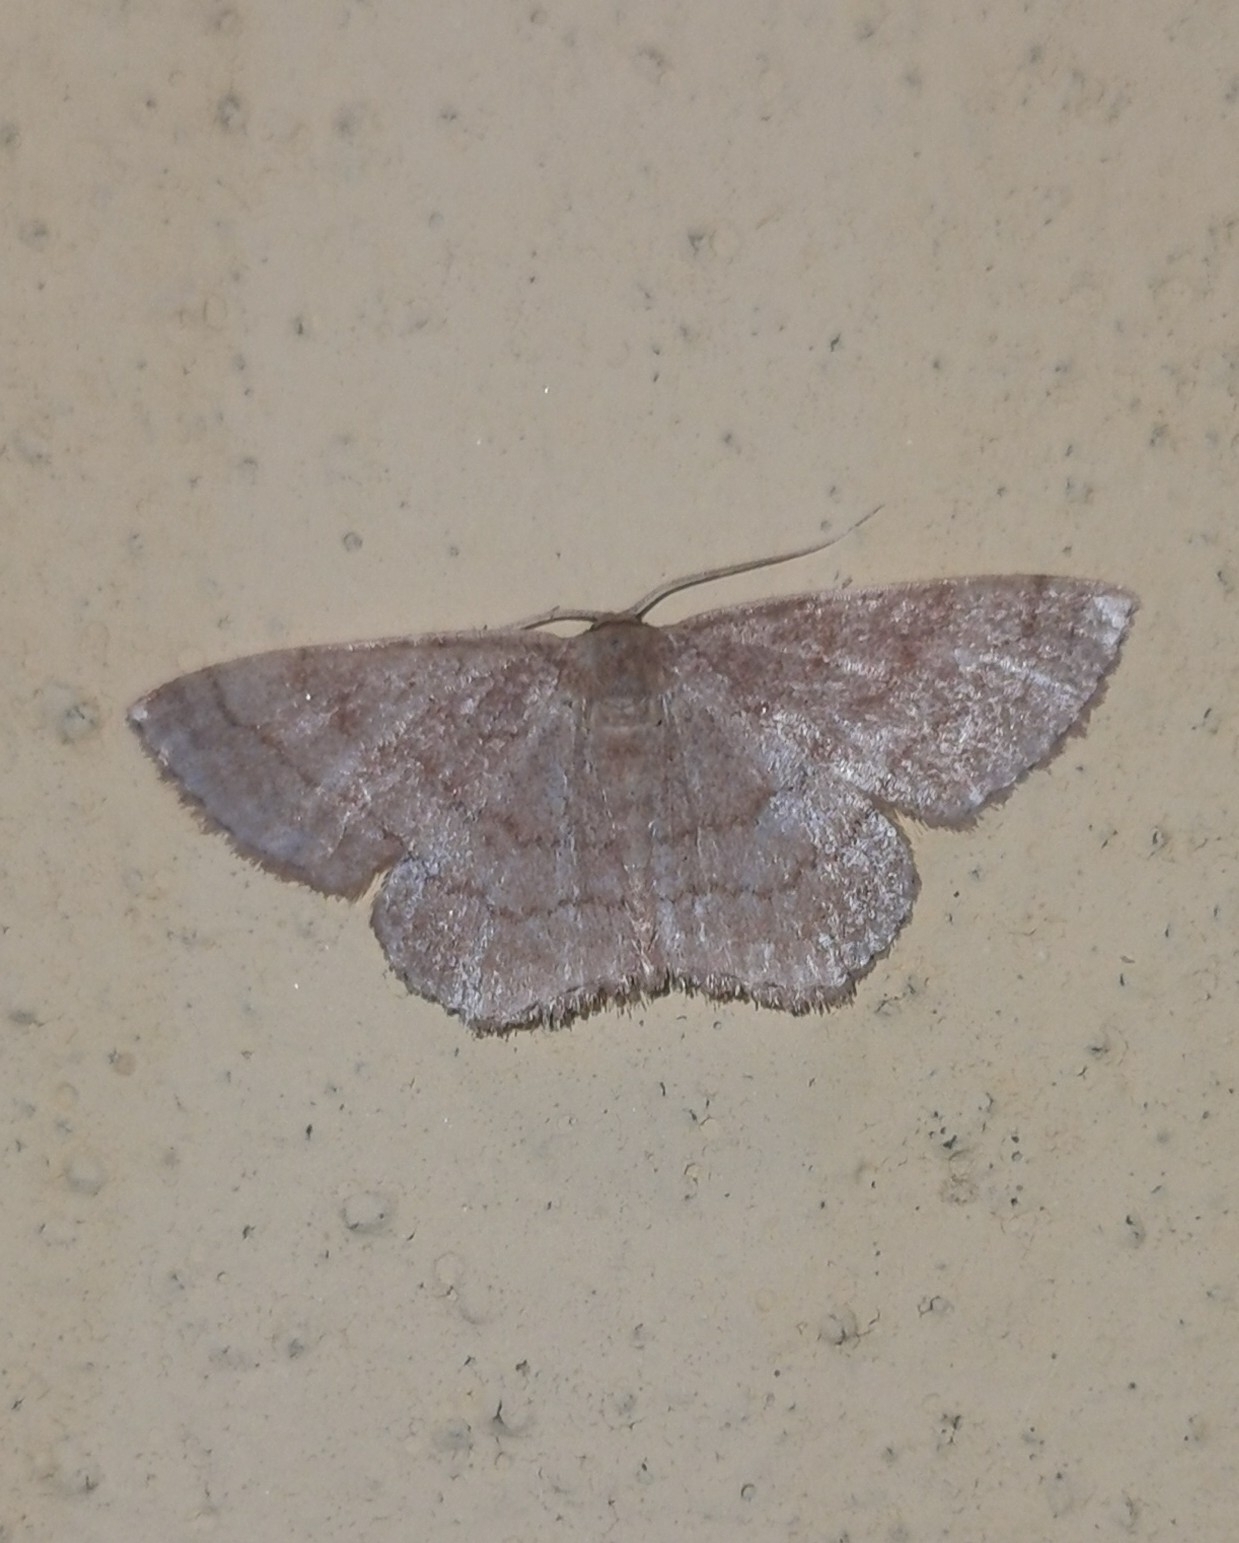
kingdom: Animalia
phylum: Arthropoda
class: Insecta
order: Lepidoptera
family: Geometridae
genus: Scopula
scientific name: Scopula rubiginata
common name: Tawny wave
